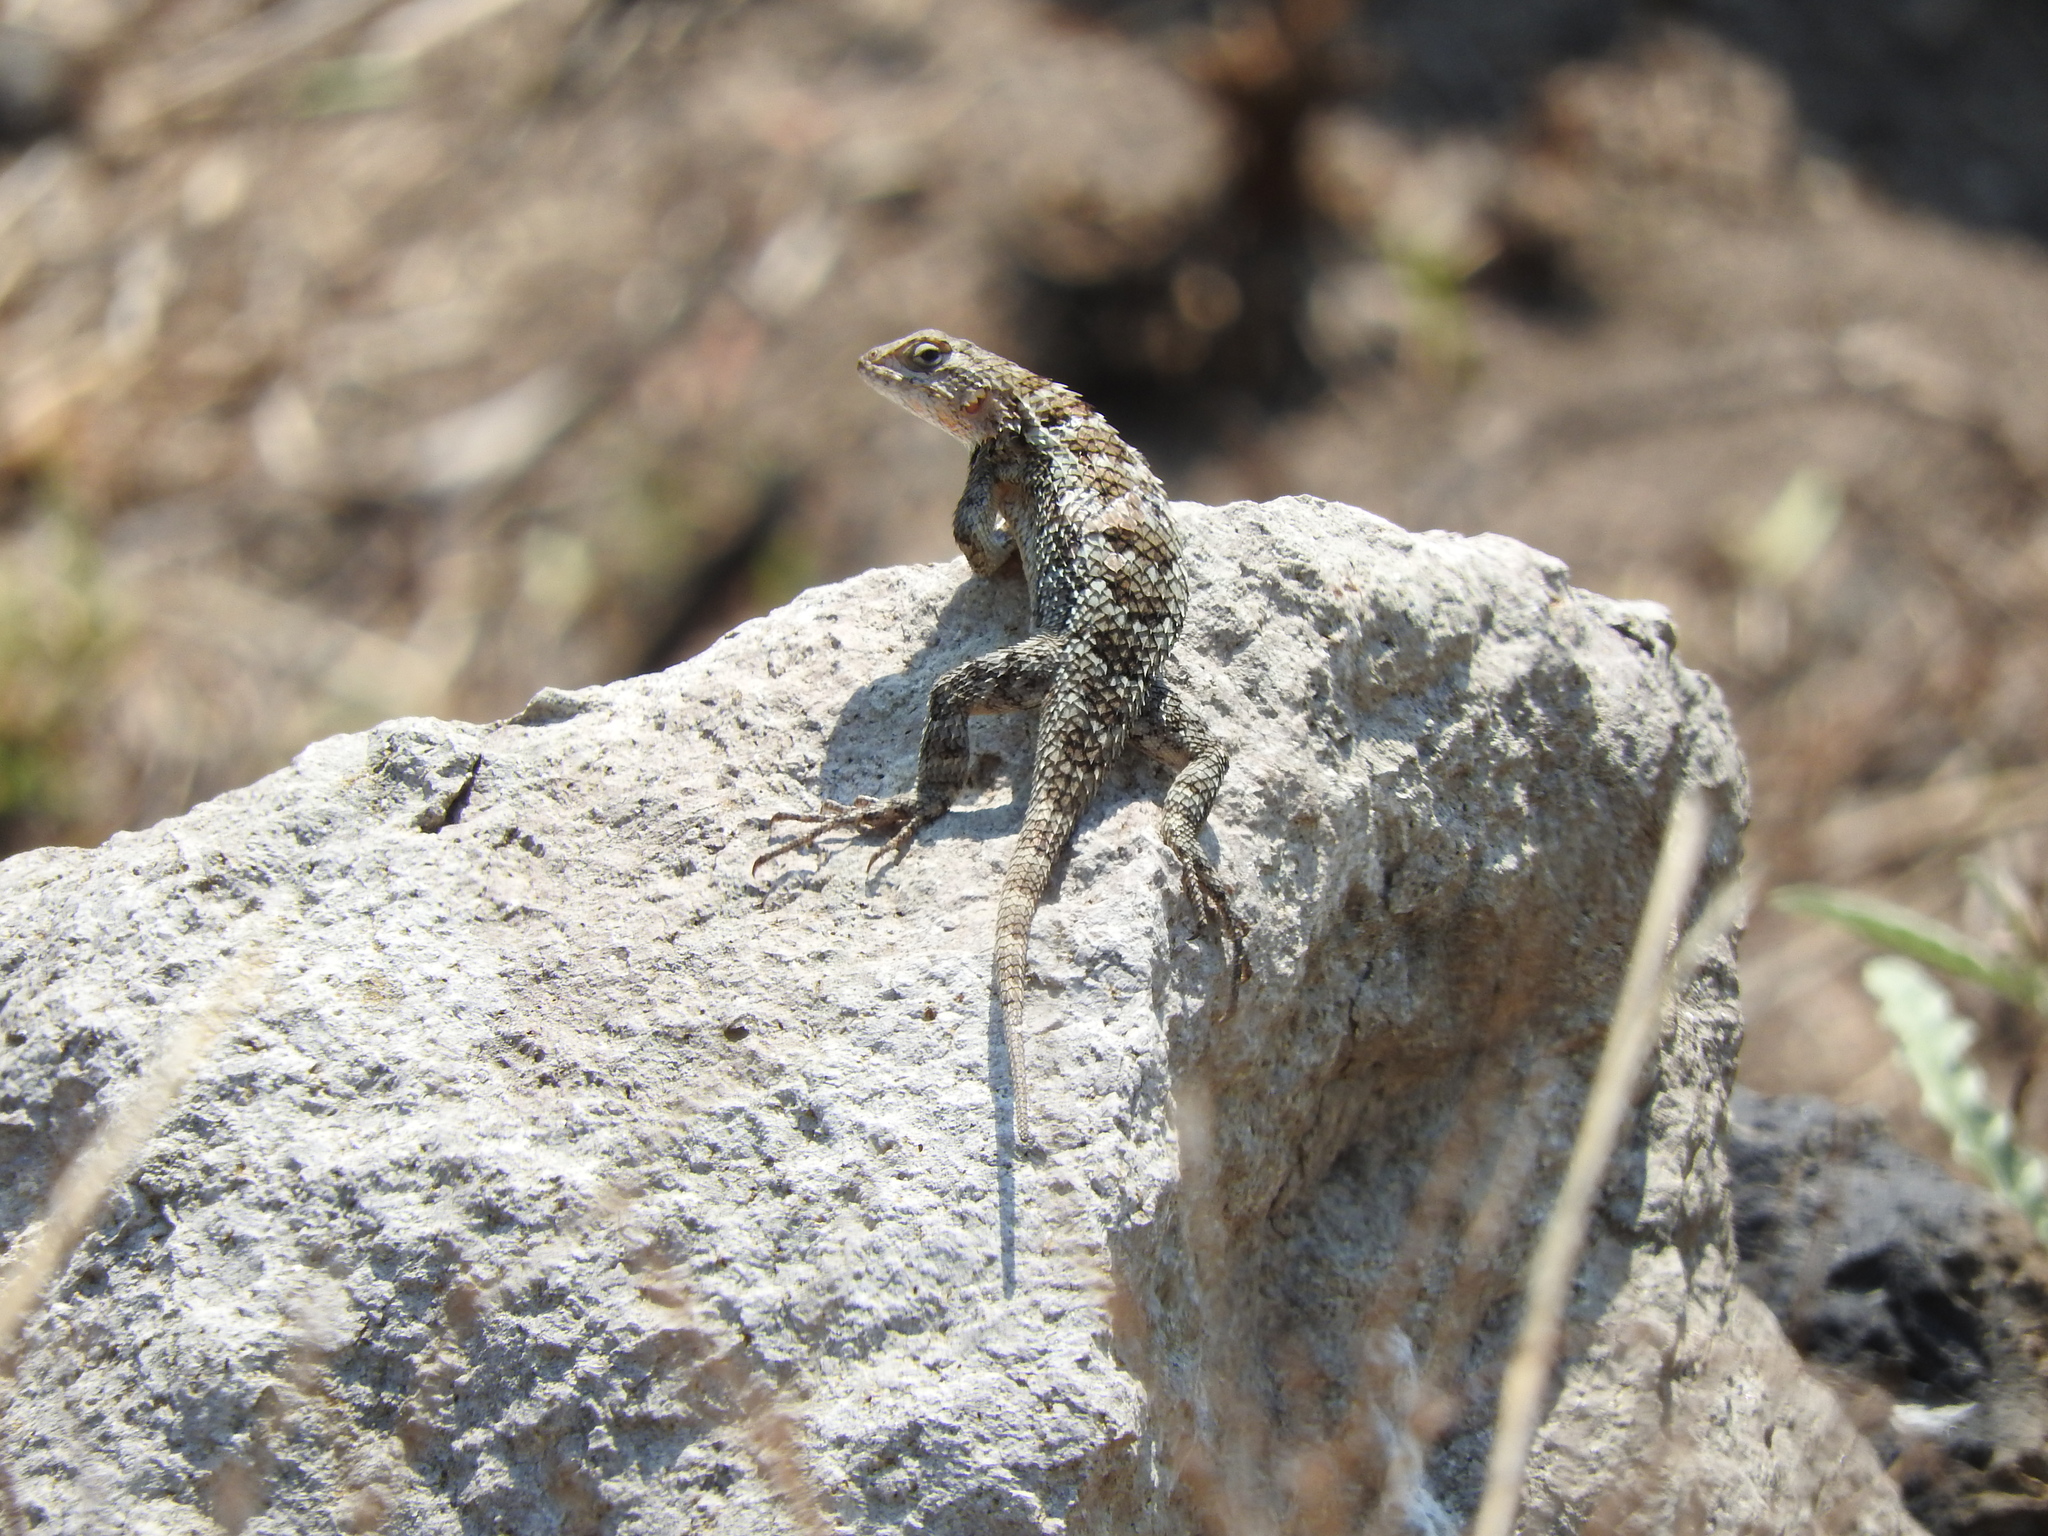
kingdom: Animalia
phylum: Chordata
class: Squamata
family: Phrynosomatidae
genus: Sceloporus
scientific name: Sceloporus spinosus
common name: Blue-spotted spiny lizard [caeruleopunctatus]
